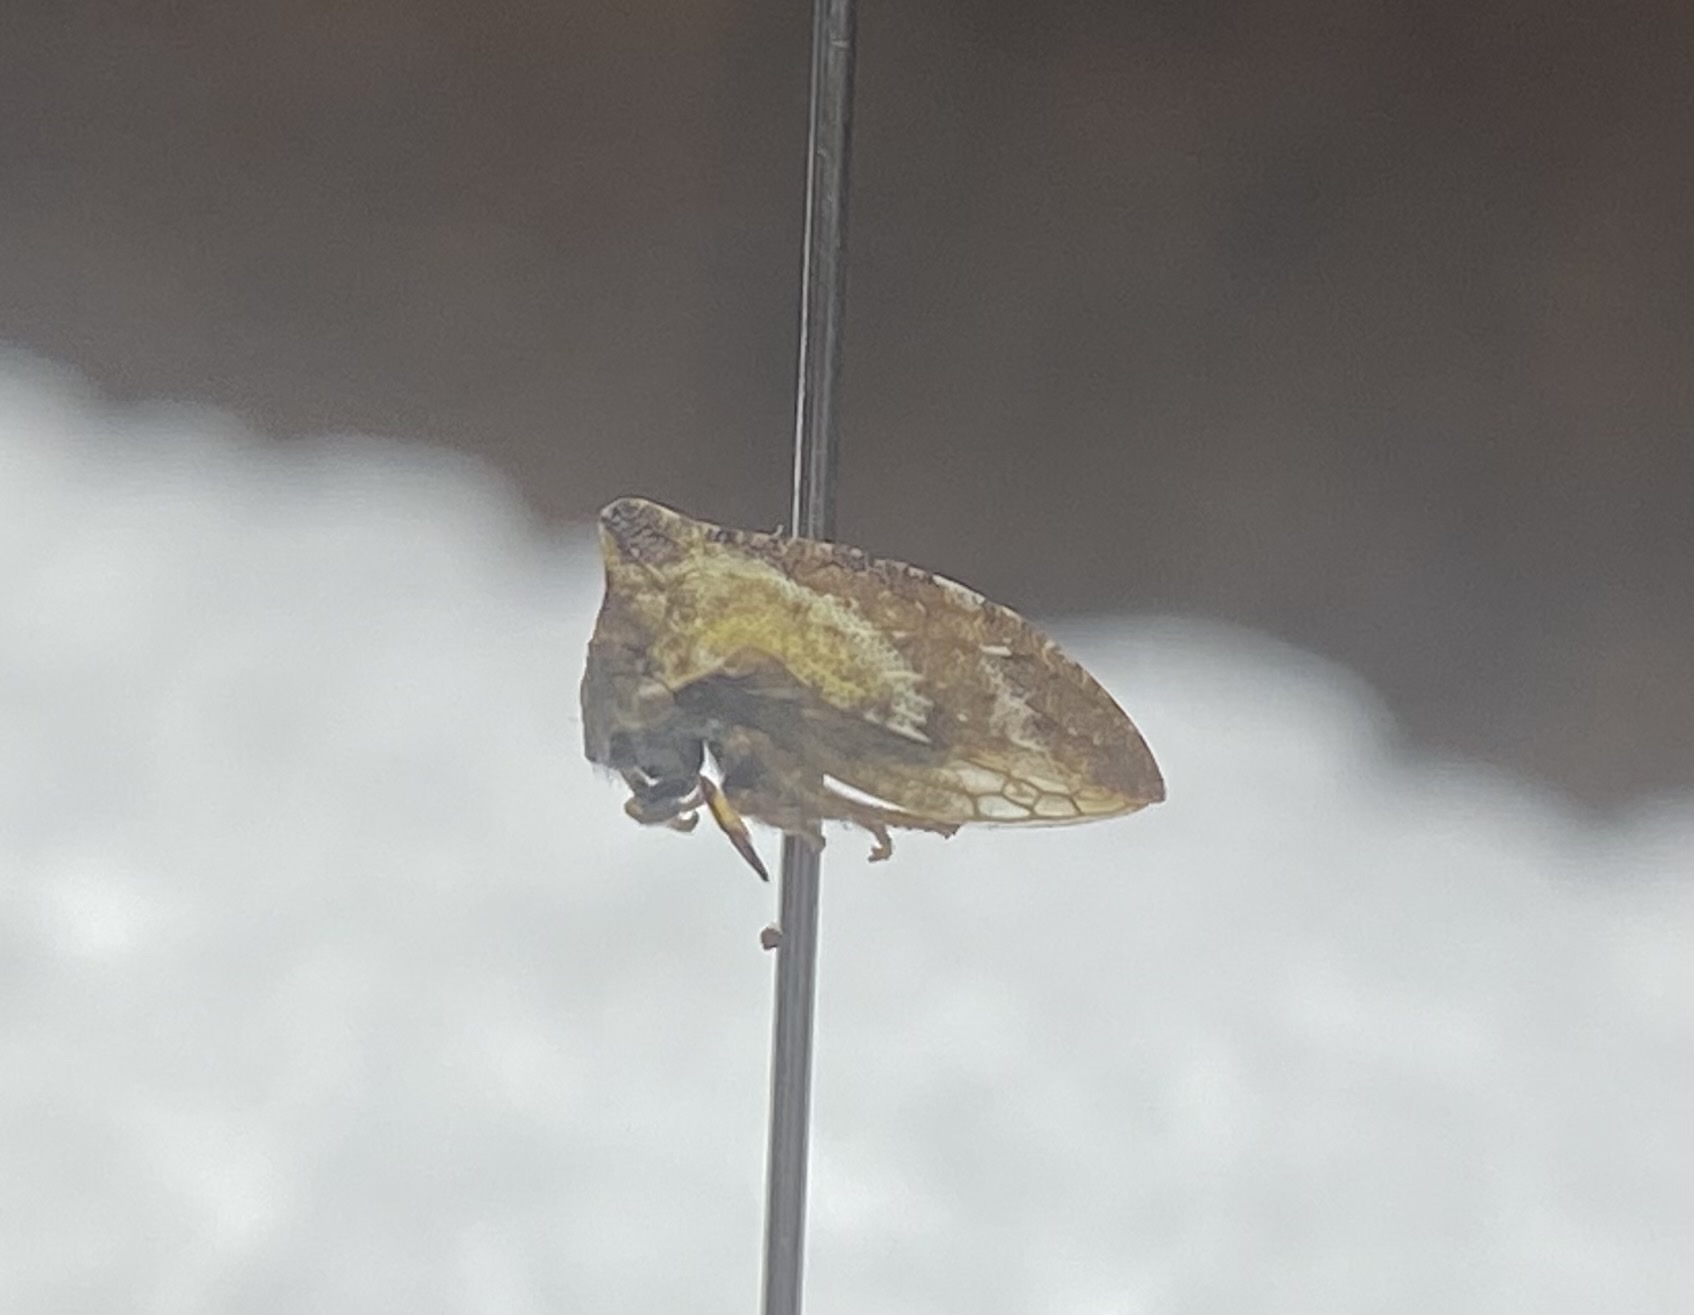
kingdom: Animalia
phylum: Arthropoda
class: Insecta
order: Hemiptera
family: Membracidae
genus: Publilia
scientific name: Publilia porrecta
